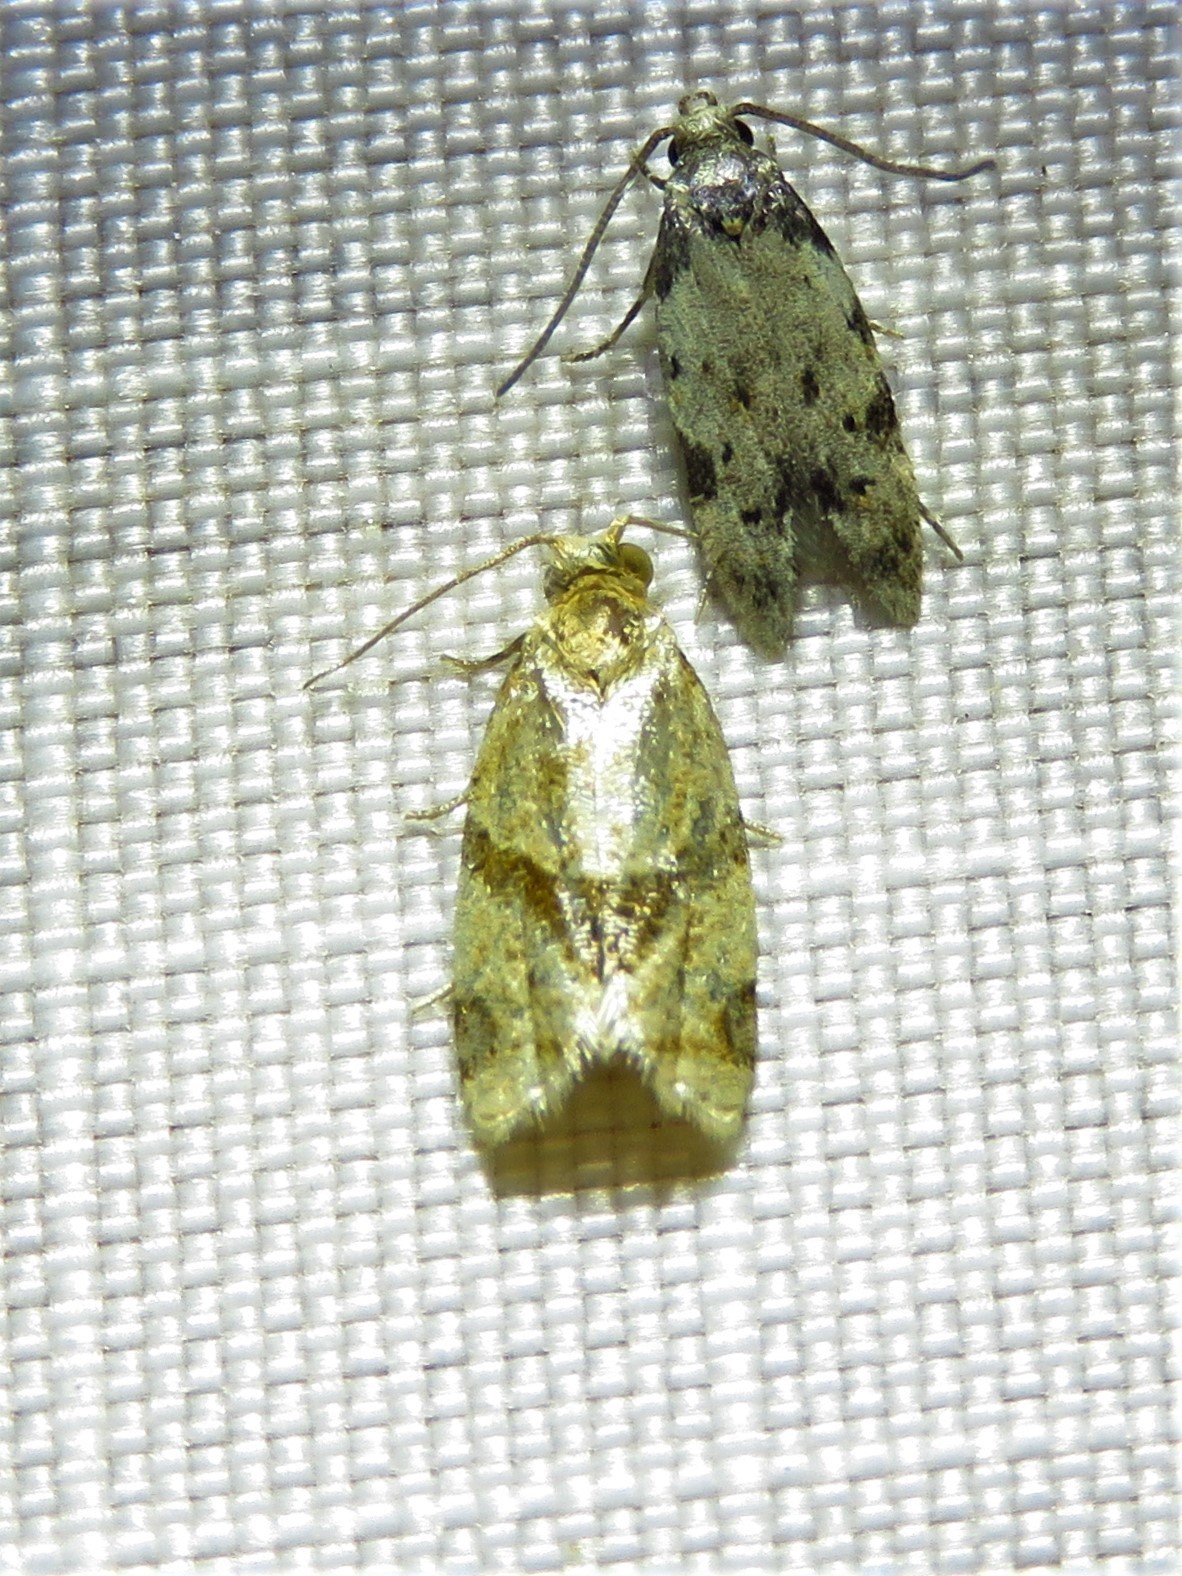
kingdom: Animalia
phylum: Arthropoda
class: Insecta
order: Lepidoptera
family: Tortricidae
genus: Clepsis
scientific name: Clepsis peritana
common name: Garden tortrix
